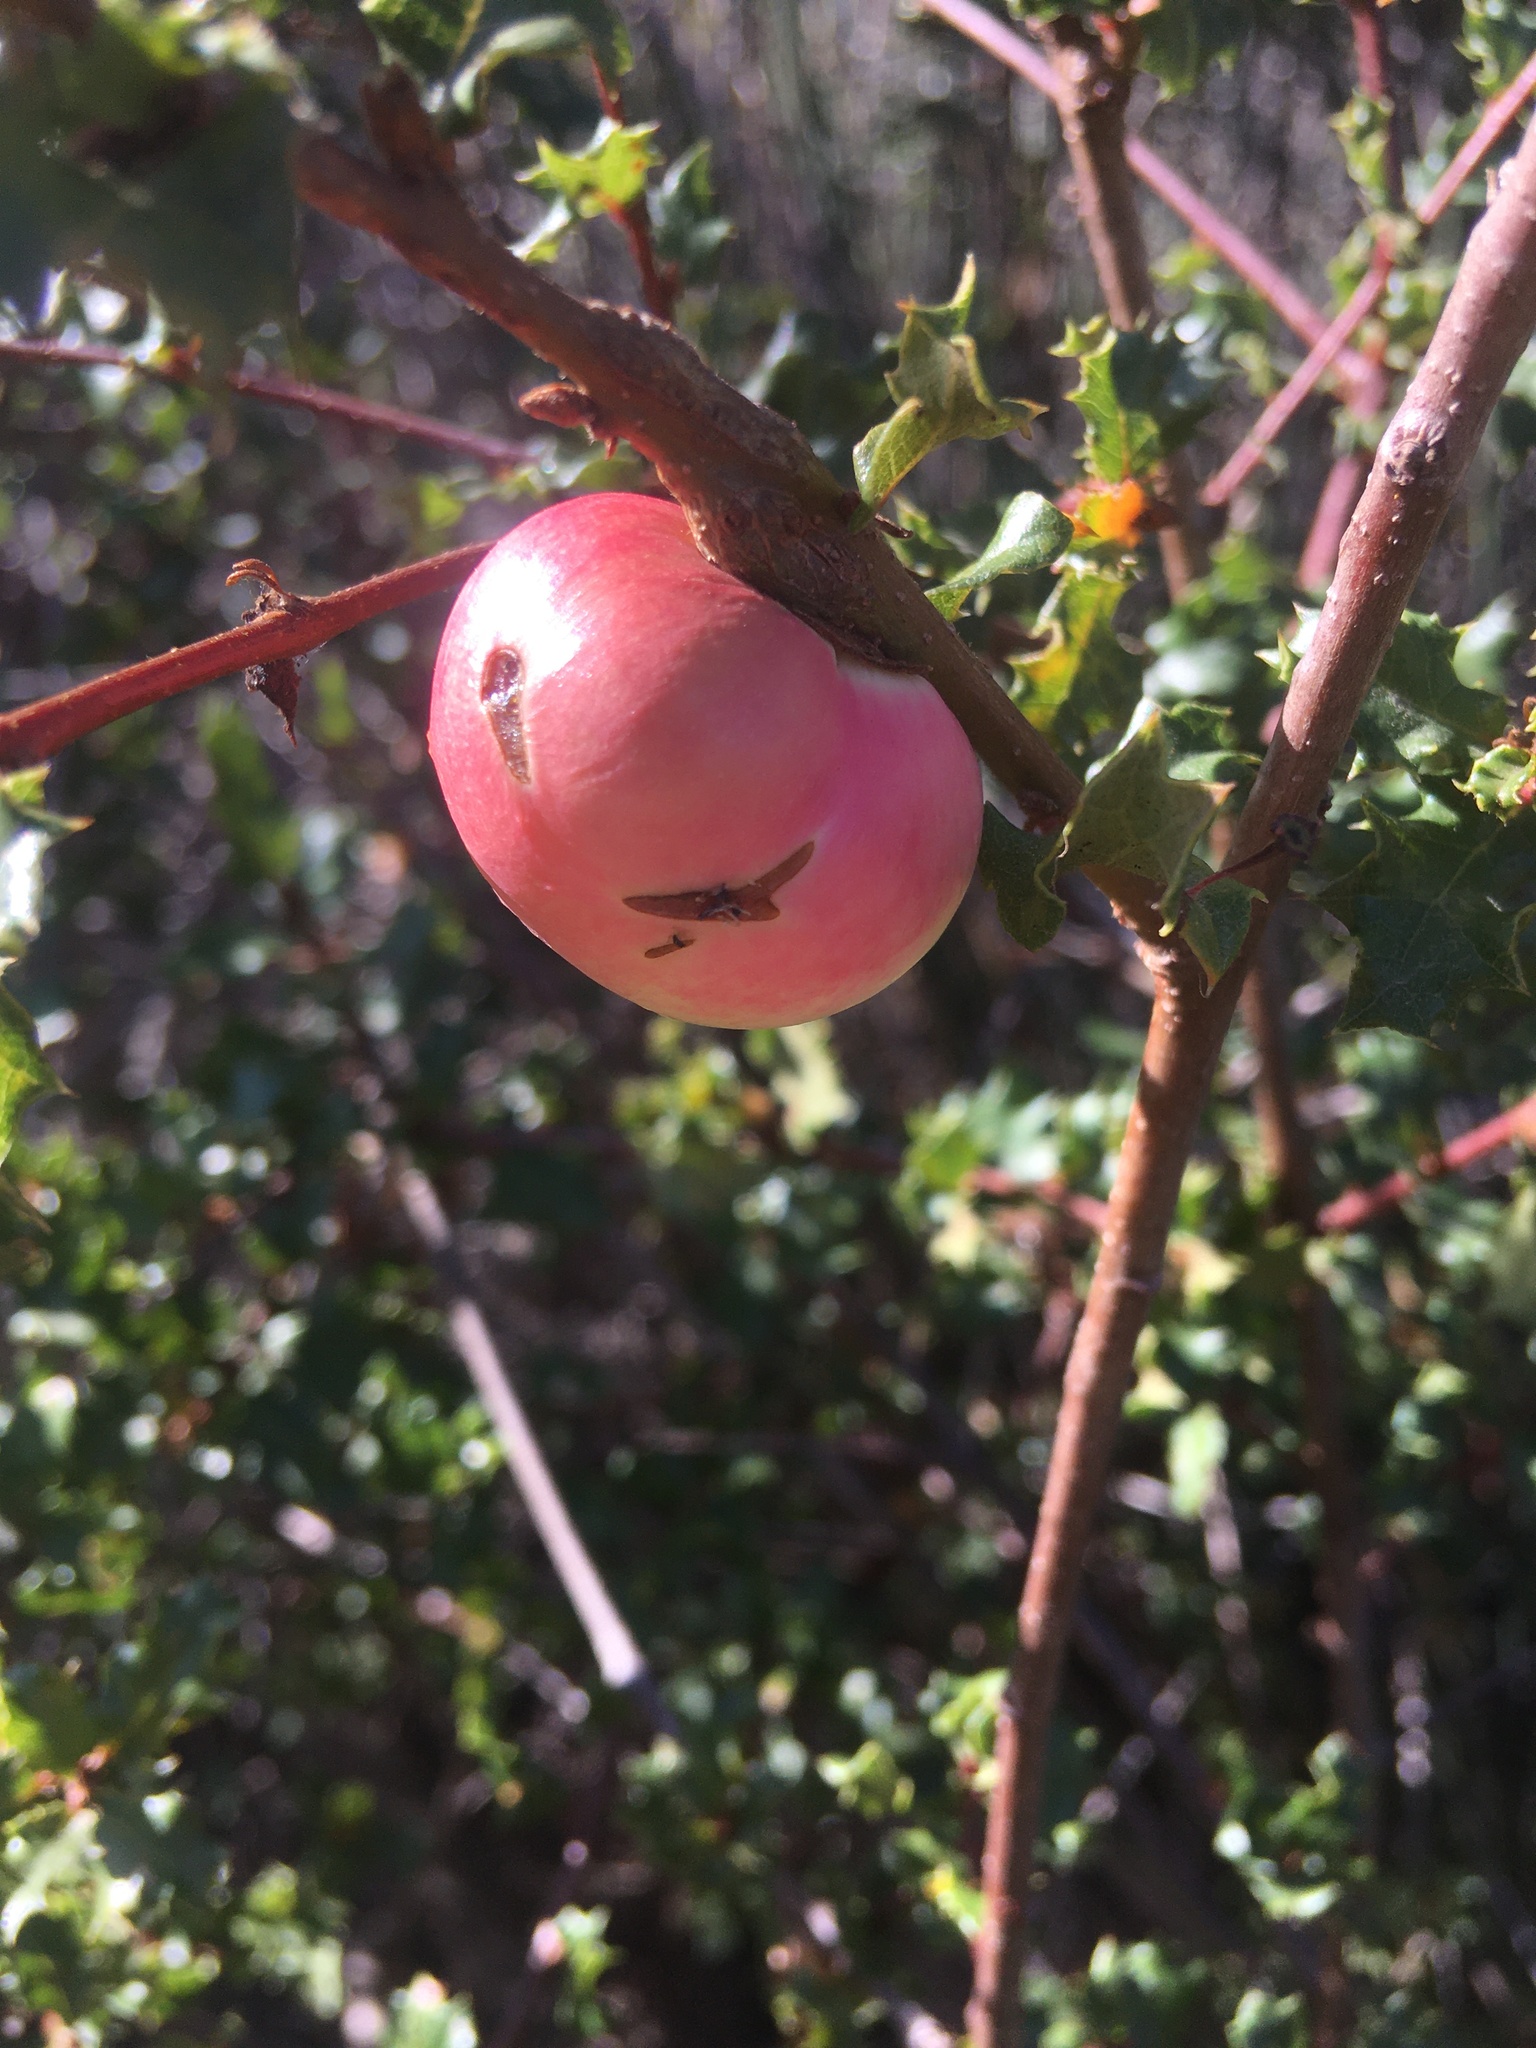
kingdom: Animalia
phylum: Arthropoda
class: Insecta
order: Hymenoptera
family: Cynipidae
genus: Andricus
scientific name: Andricus quercuscalifornicus
